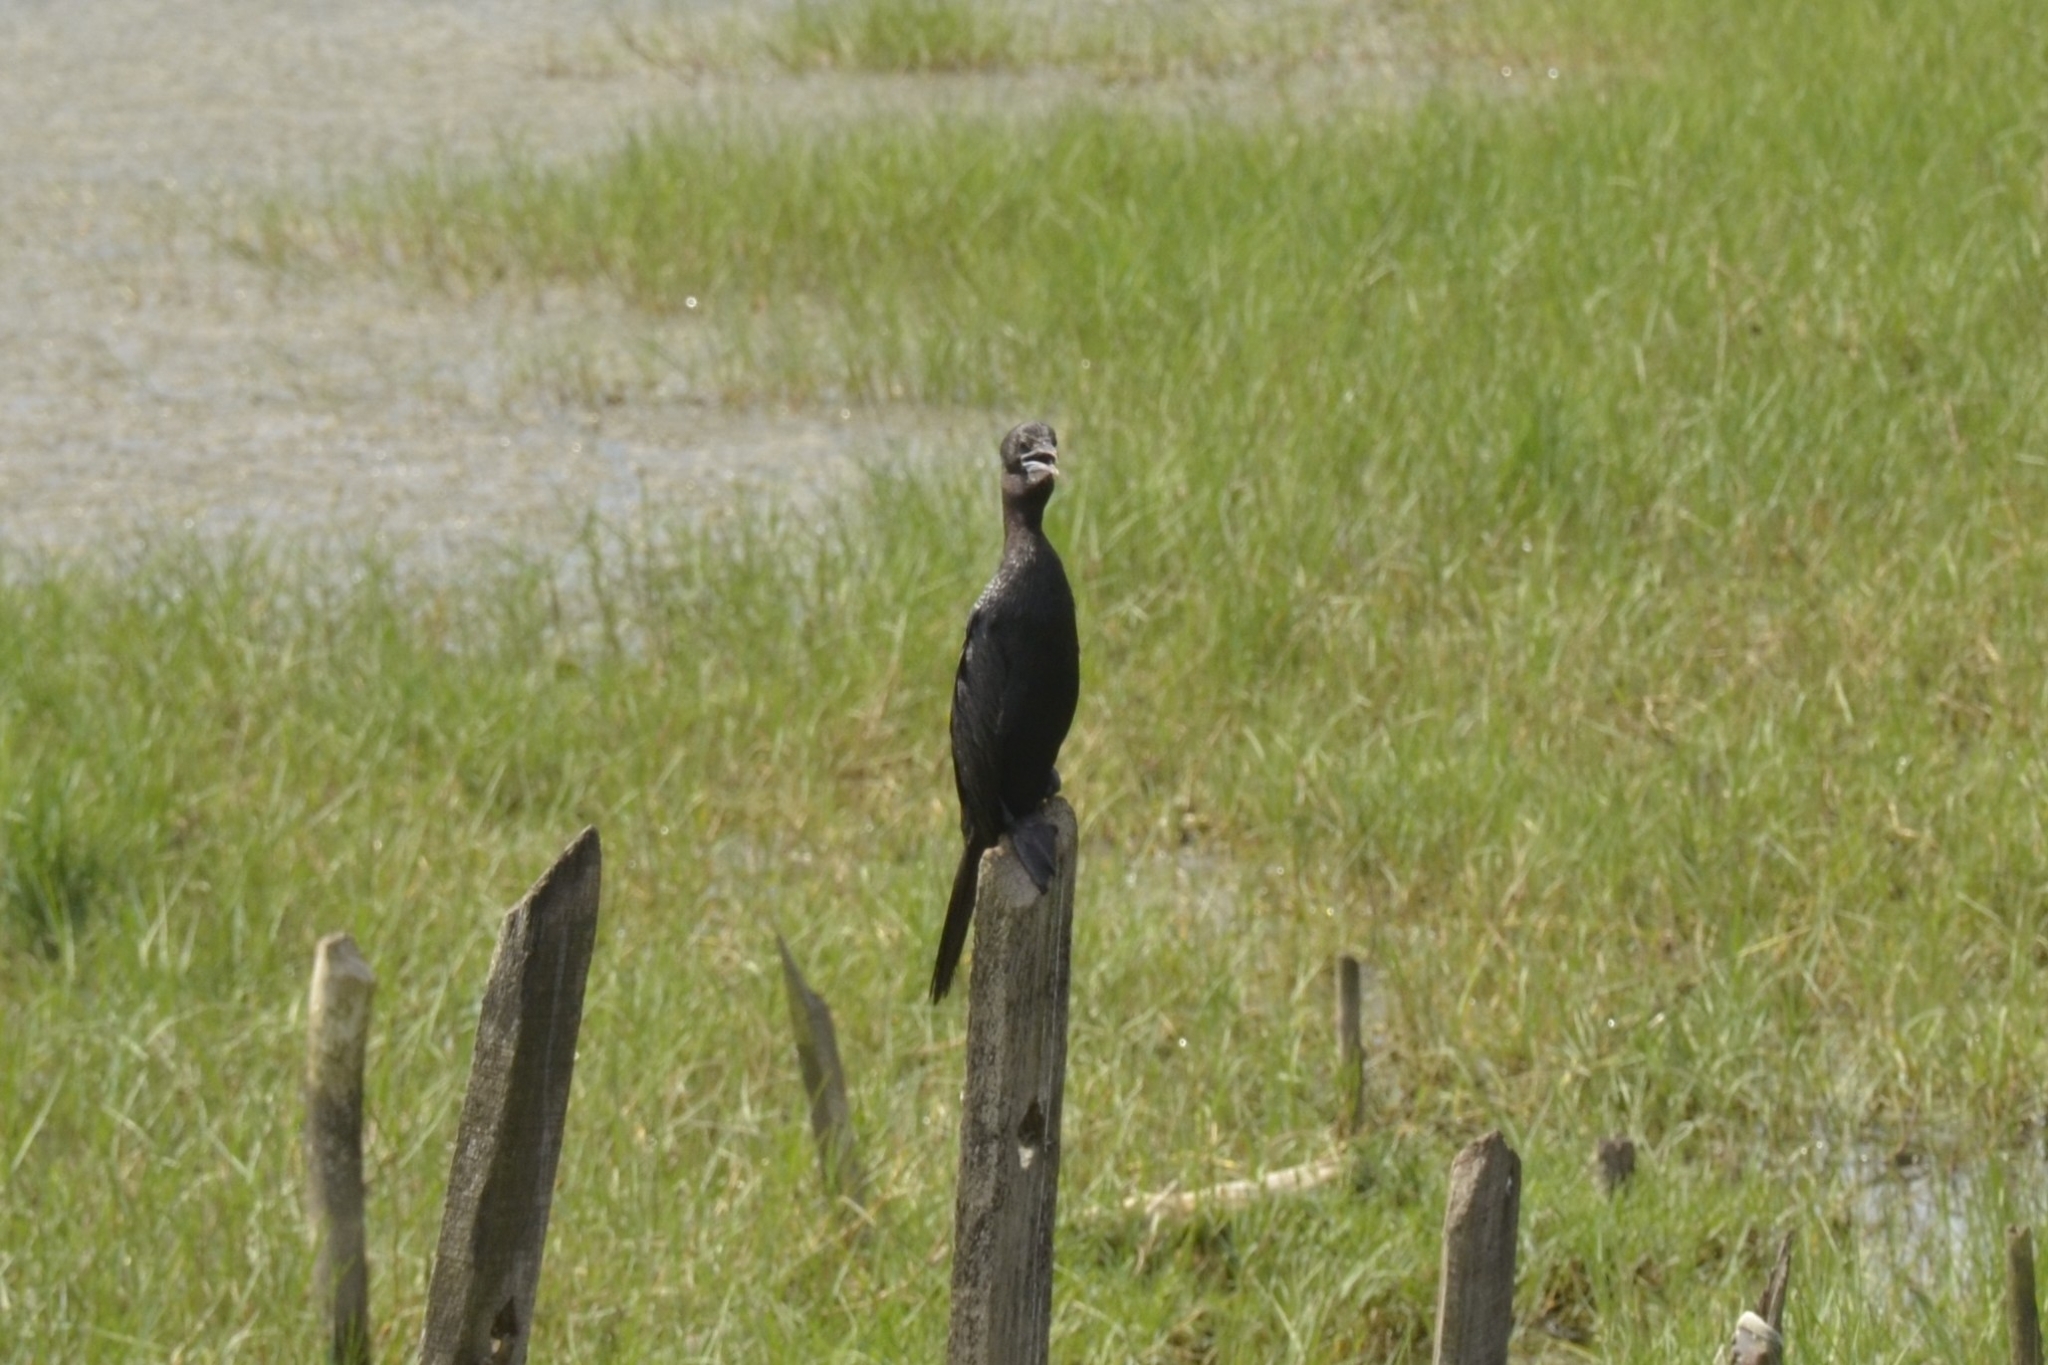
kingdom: Animalia
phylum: Chordata
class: Aves
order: Suliformes
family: Phalacrocoracidae
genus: Microcarbo
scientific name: Microcarbo niger
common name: Little cormorant
